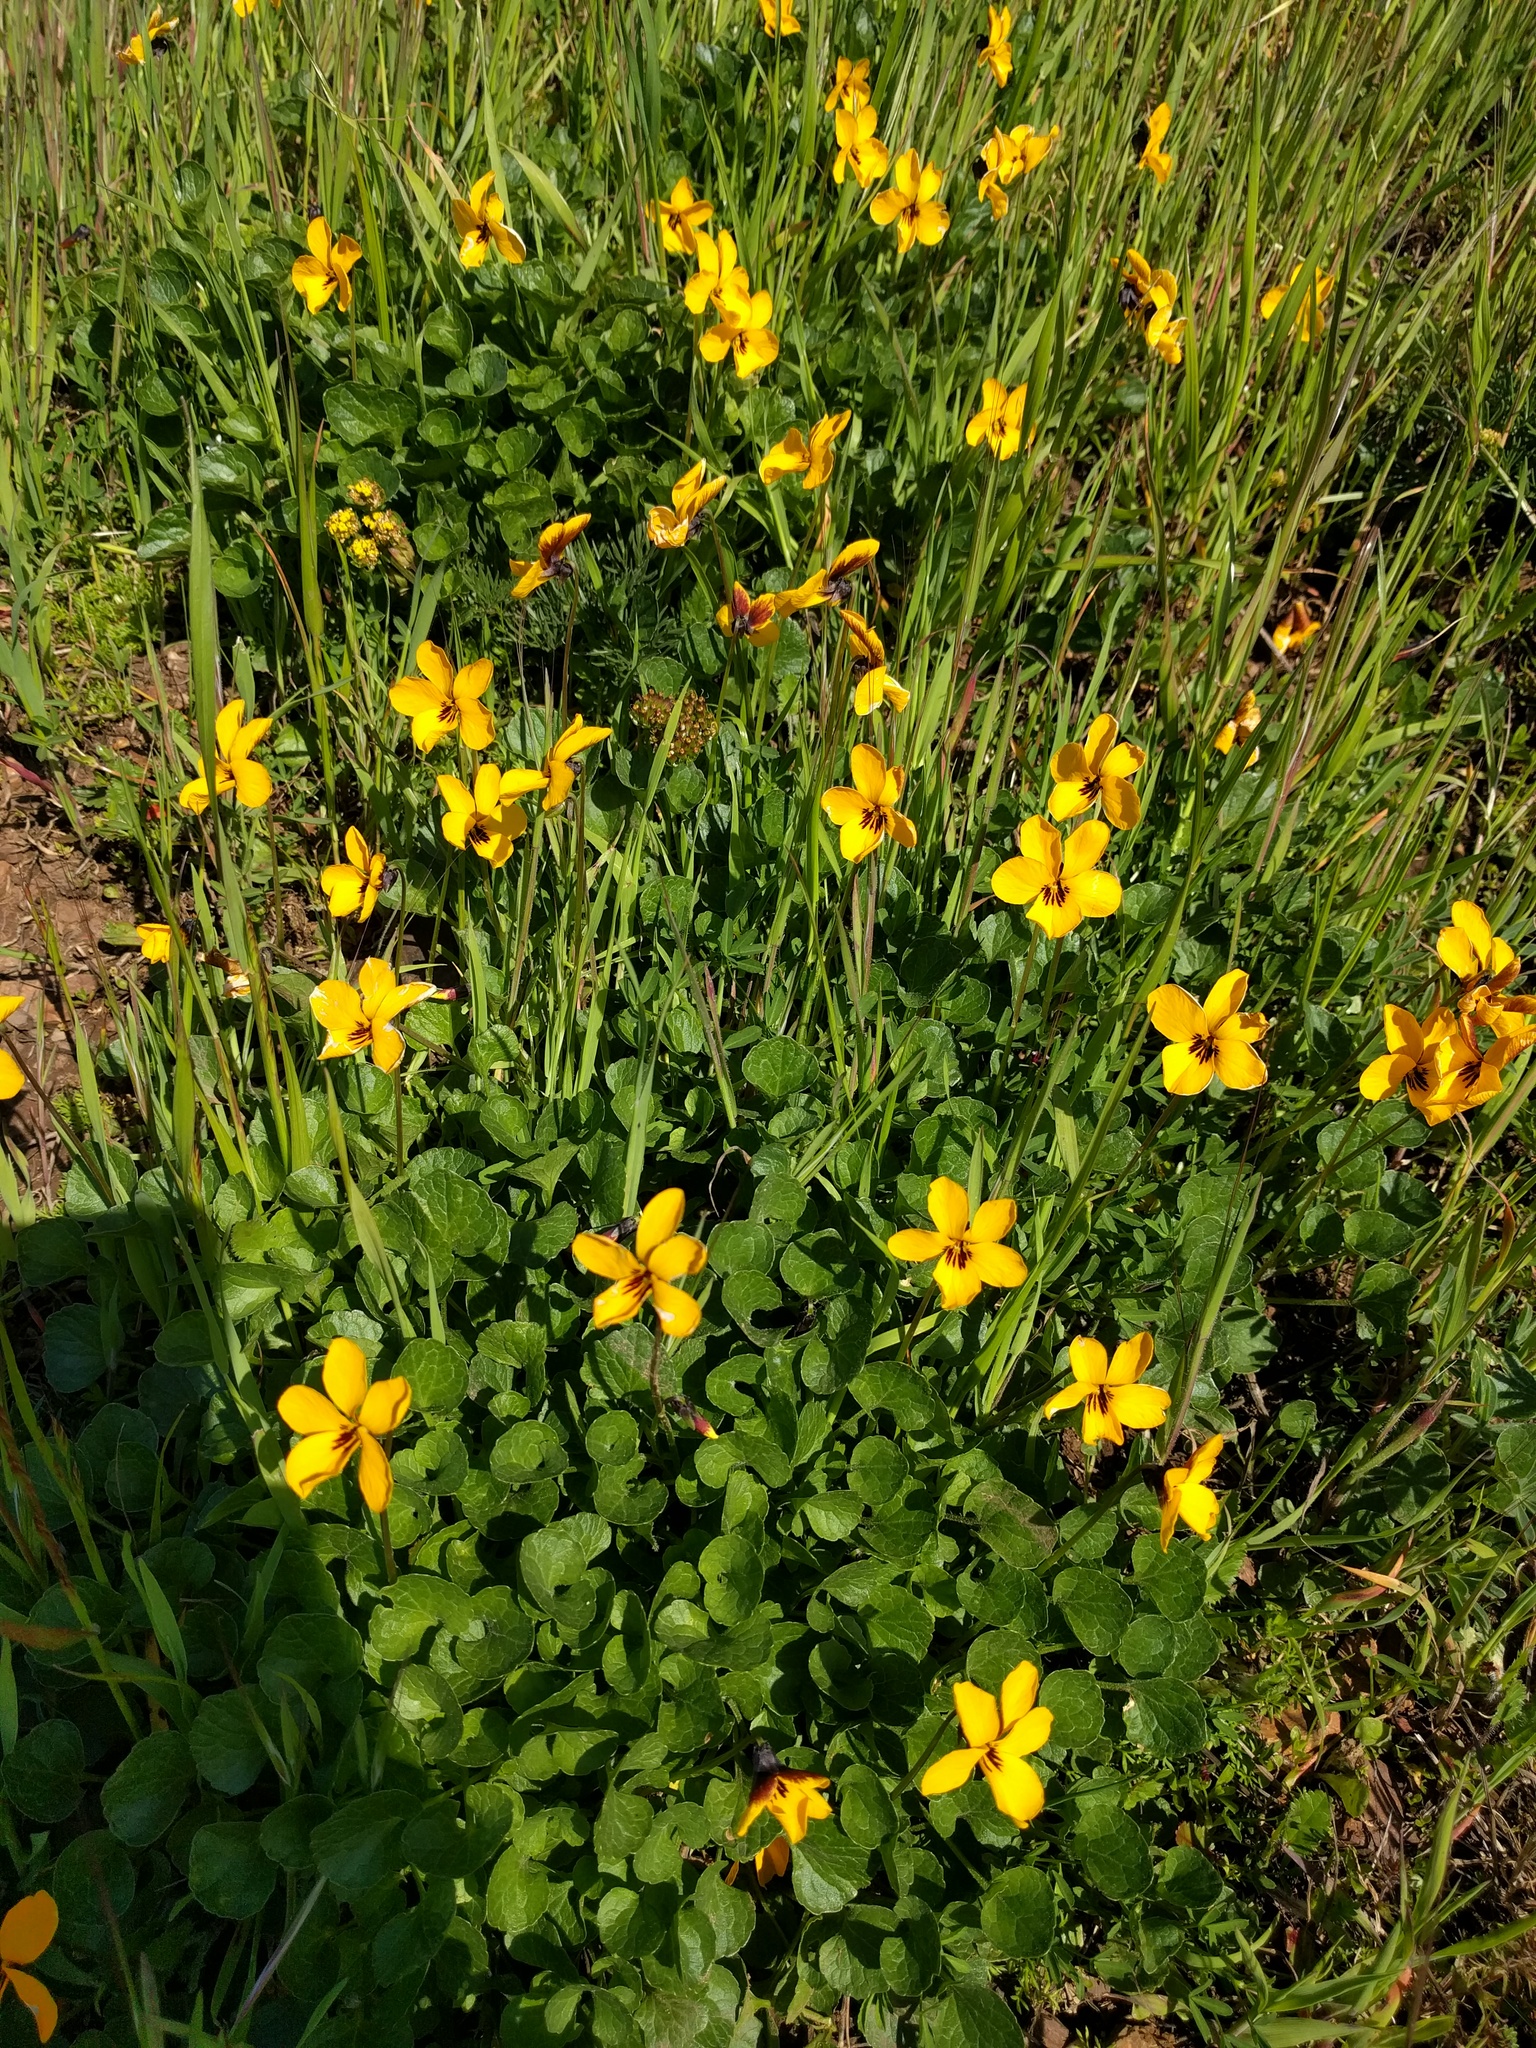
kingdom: Plantae
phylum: Tracheophyta
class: Magnoliopsida
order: Malpighiales
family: Violaceae
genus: Viola
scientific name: Viola pedunculata
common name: California golden violet
